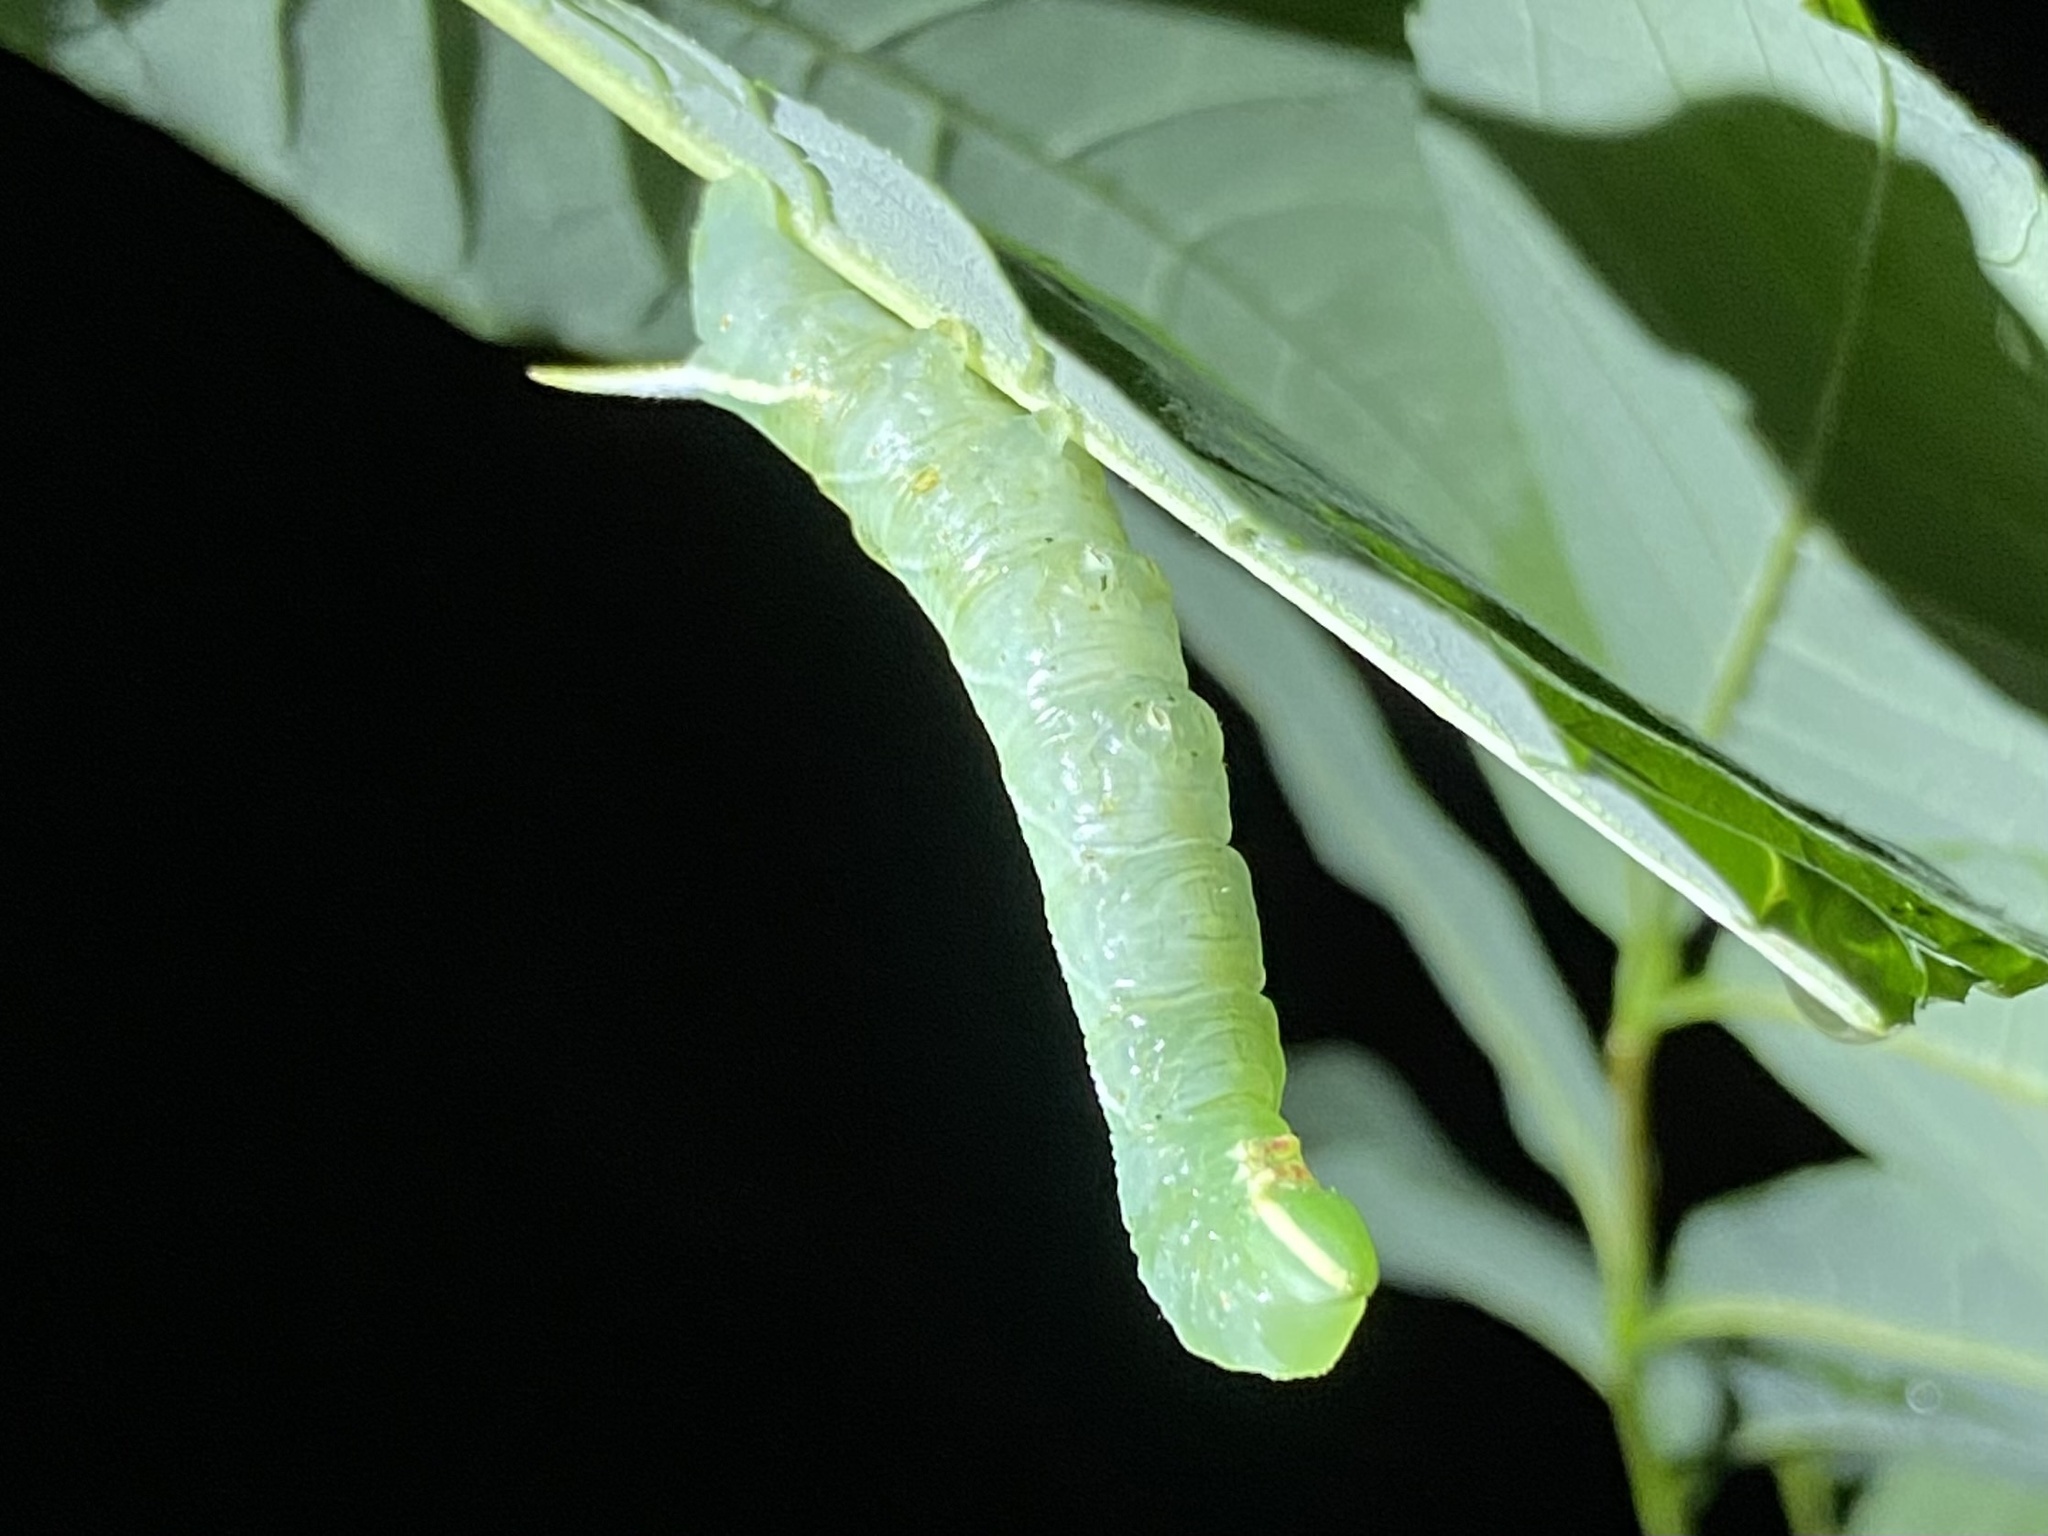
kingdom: Animalia
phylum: Arthropoda
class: Insecta
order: Lepidoptera
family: Sphingidae
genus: Ceratomia
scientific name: Ceratomia undulosa
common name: Waved sphinx
